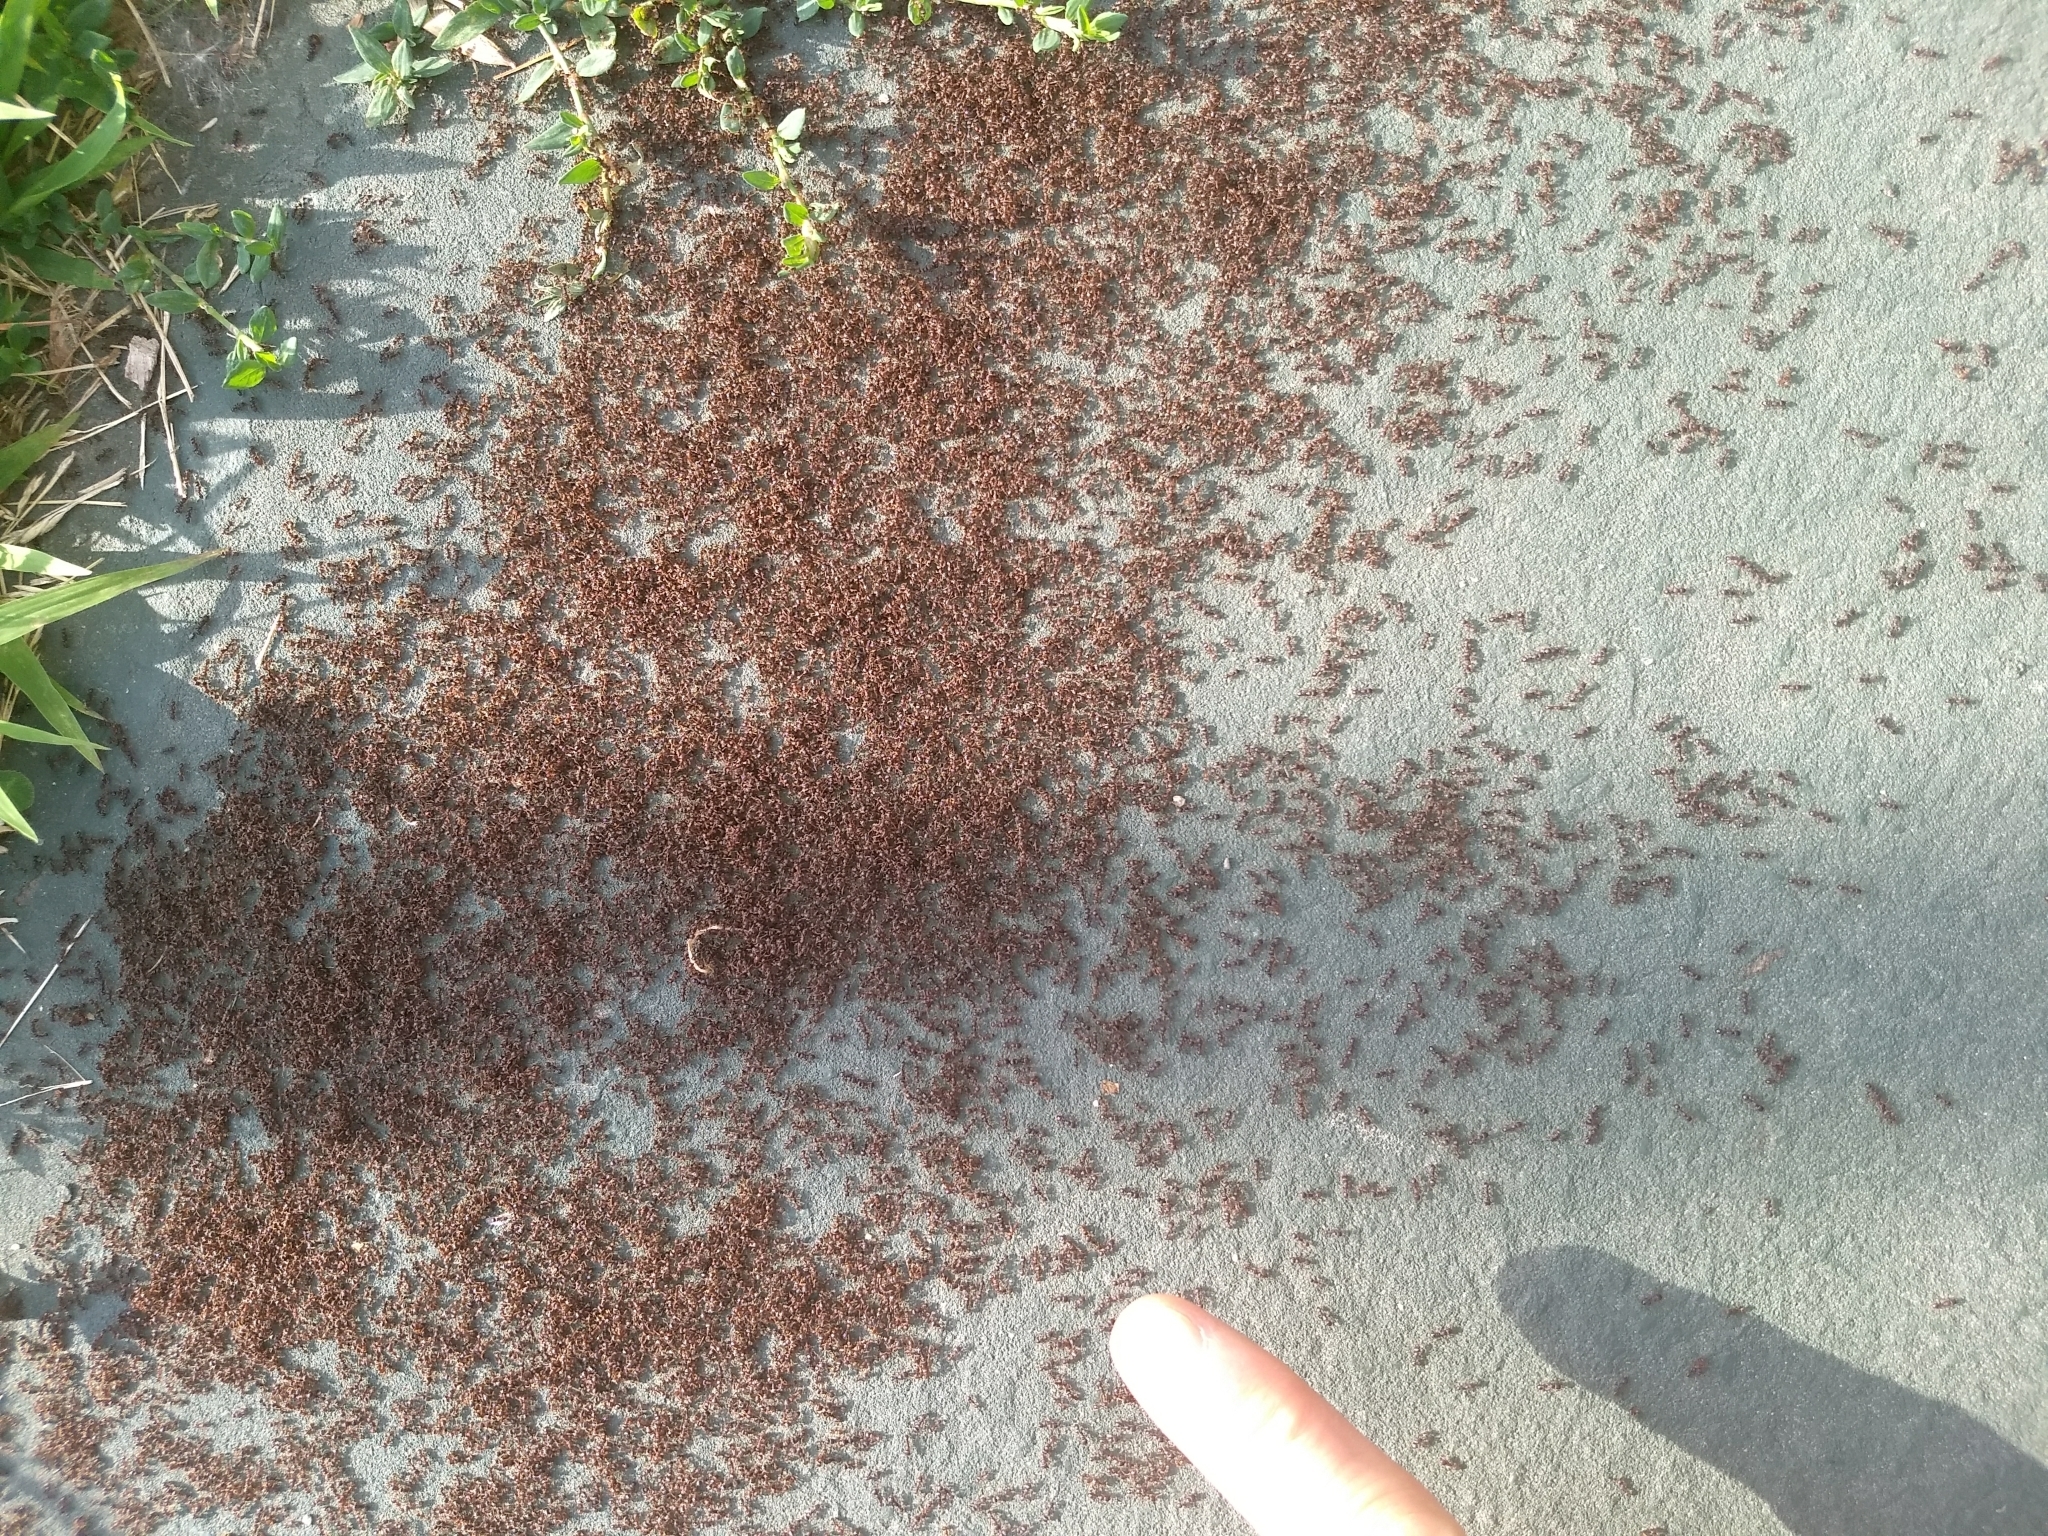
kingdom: Animalia
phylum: Arthropoda
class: Insecta
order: Hymenoptera
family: Formicidae
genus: Tetramorium
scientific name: Tetramorium immigrans
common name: Pavement ant
